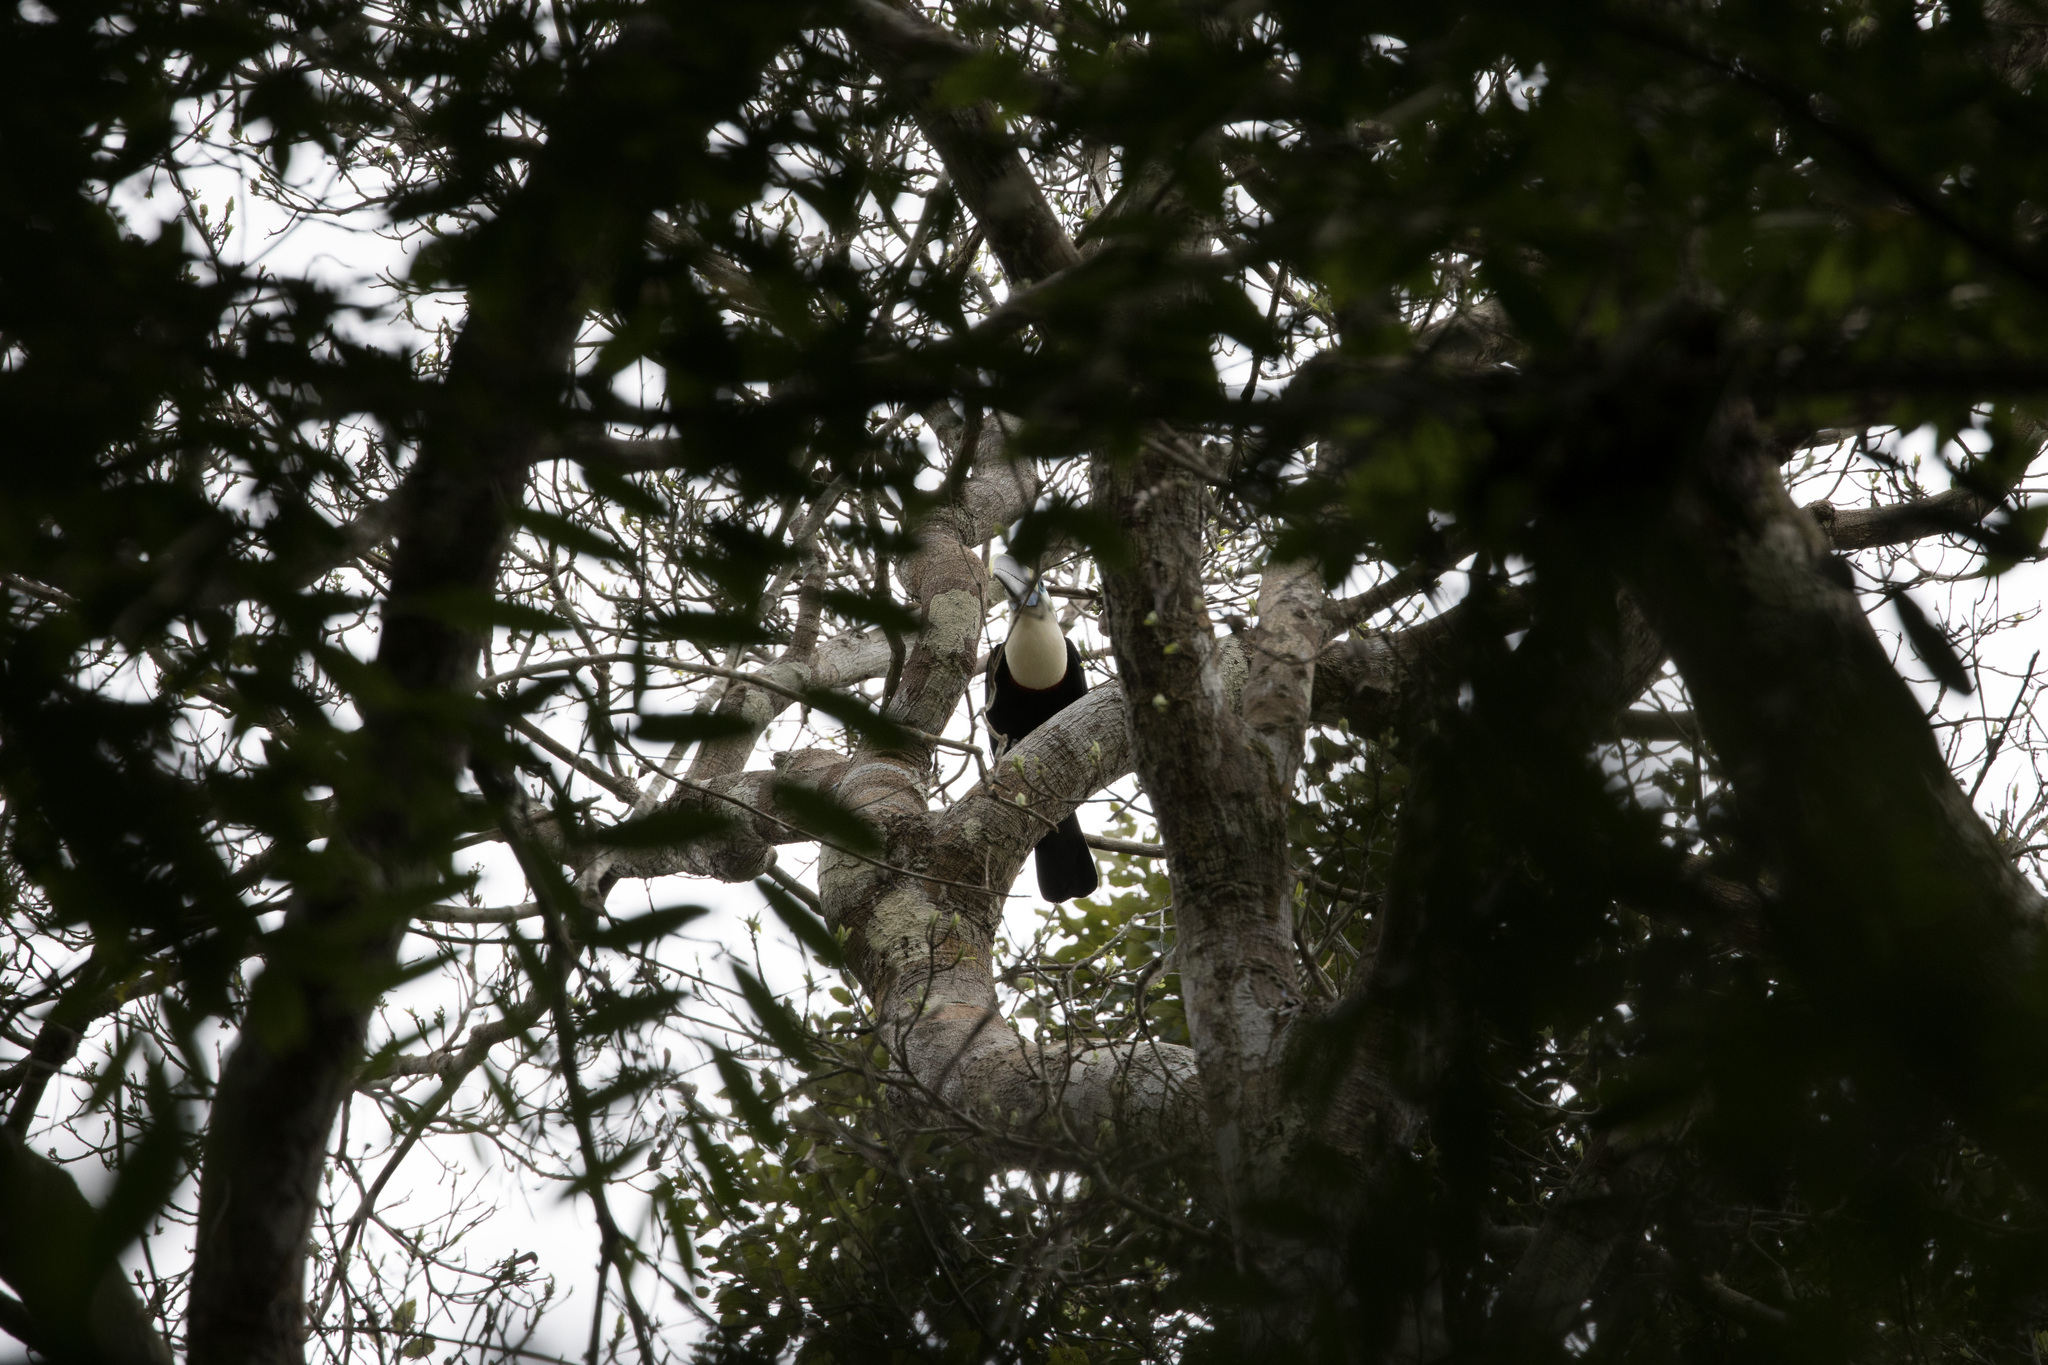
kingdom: Animalia
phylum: Chordata
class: Aves
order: Piciformes
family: Ramphastidae
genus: Ramphastos
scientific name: Ramphastos tucanus
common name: White-throated toucan
